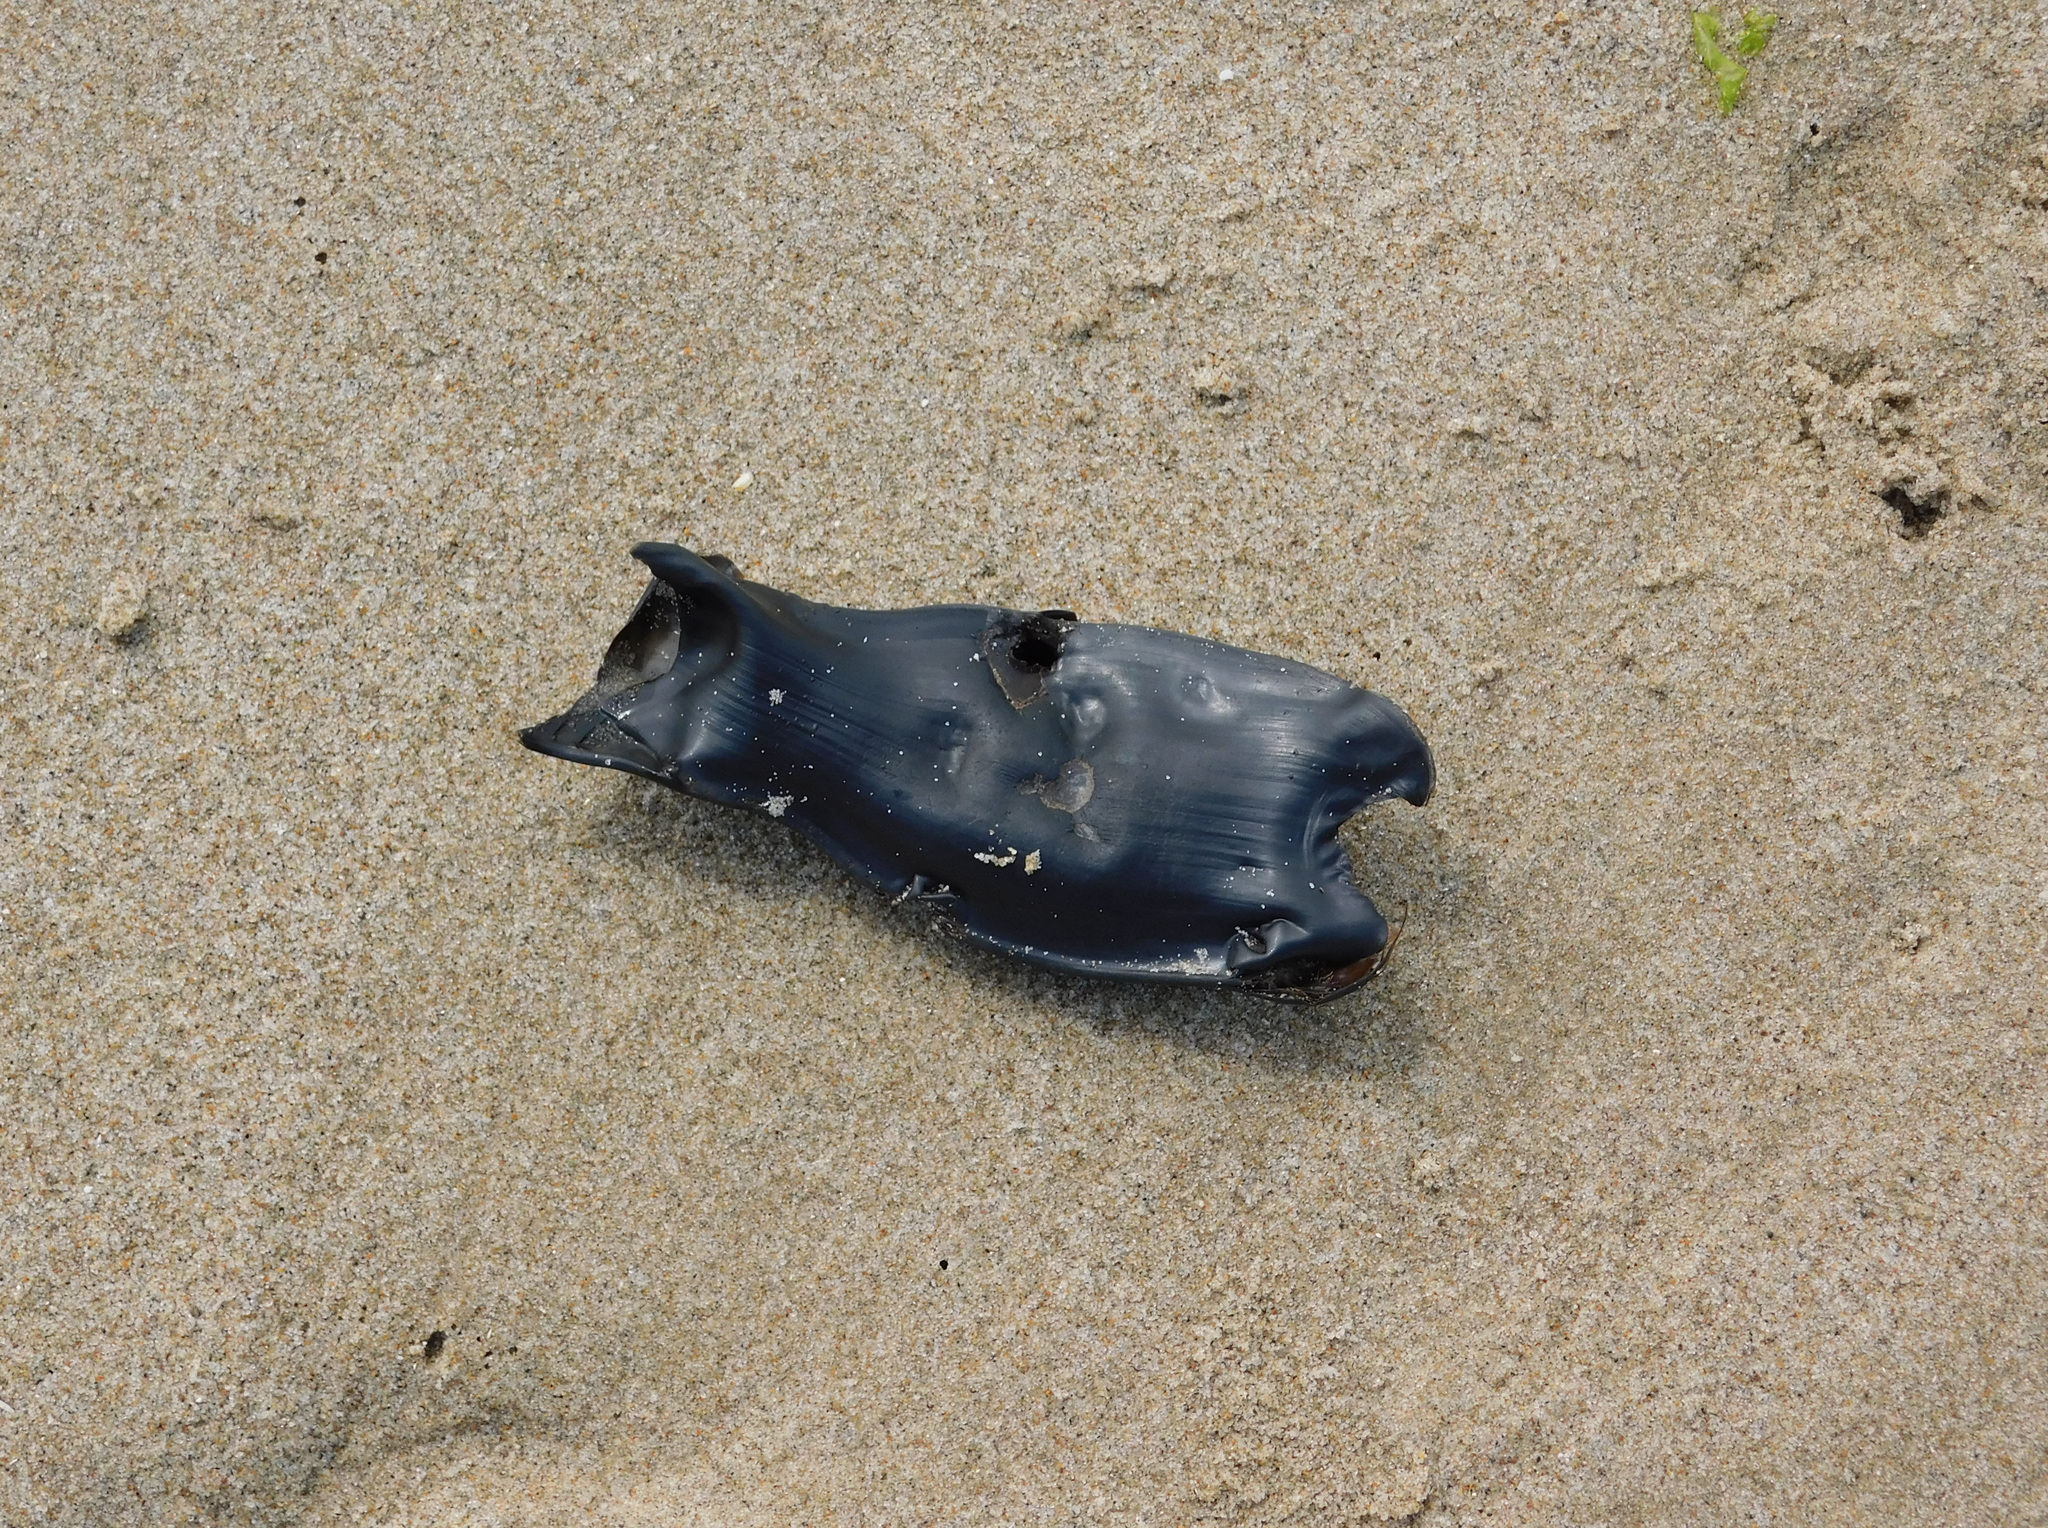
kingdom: Animalia
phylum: Chordata
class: Elasmobranchii
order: Carcharhiniformes
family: Scyliorhinidae
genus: Cephaloscyllium
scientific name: Cephaloscyllium ventriosum
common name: Swell shark
